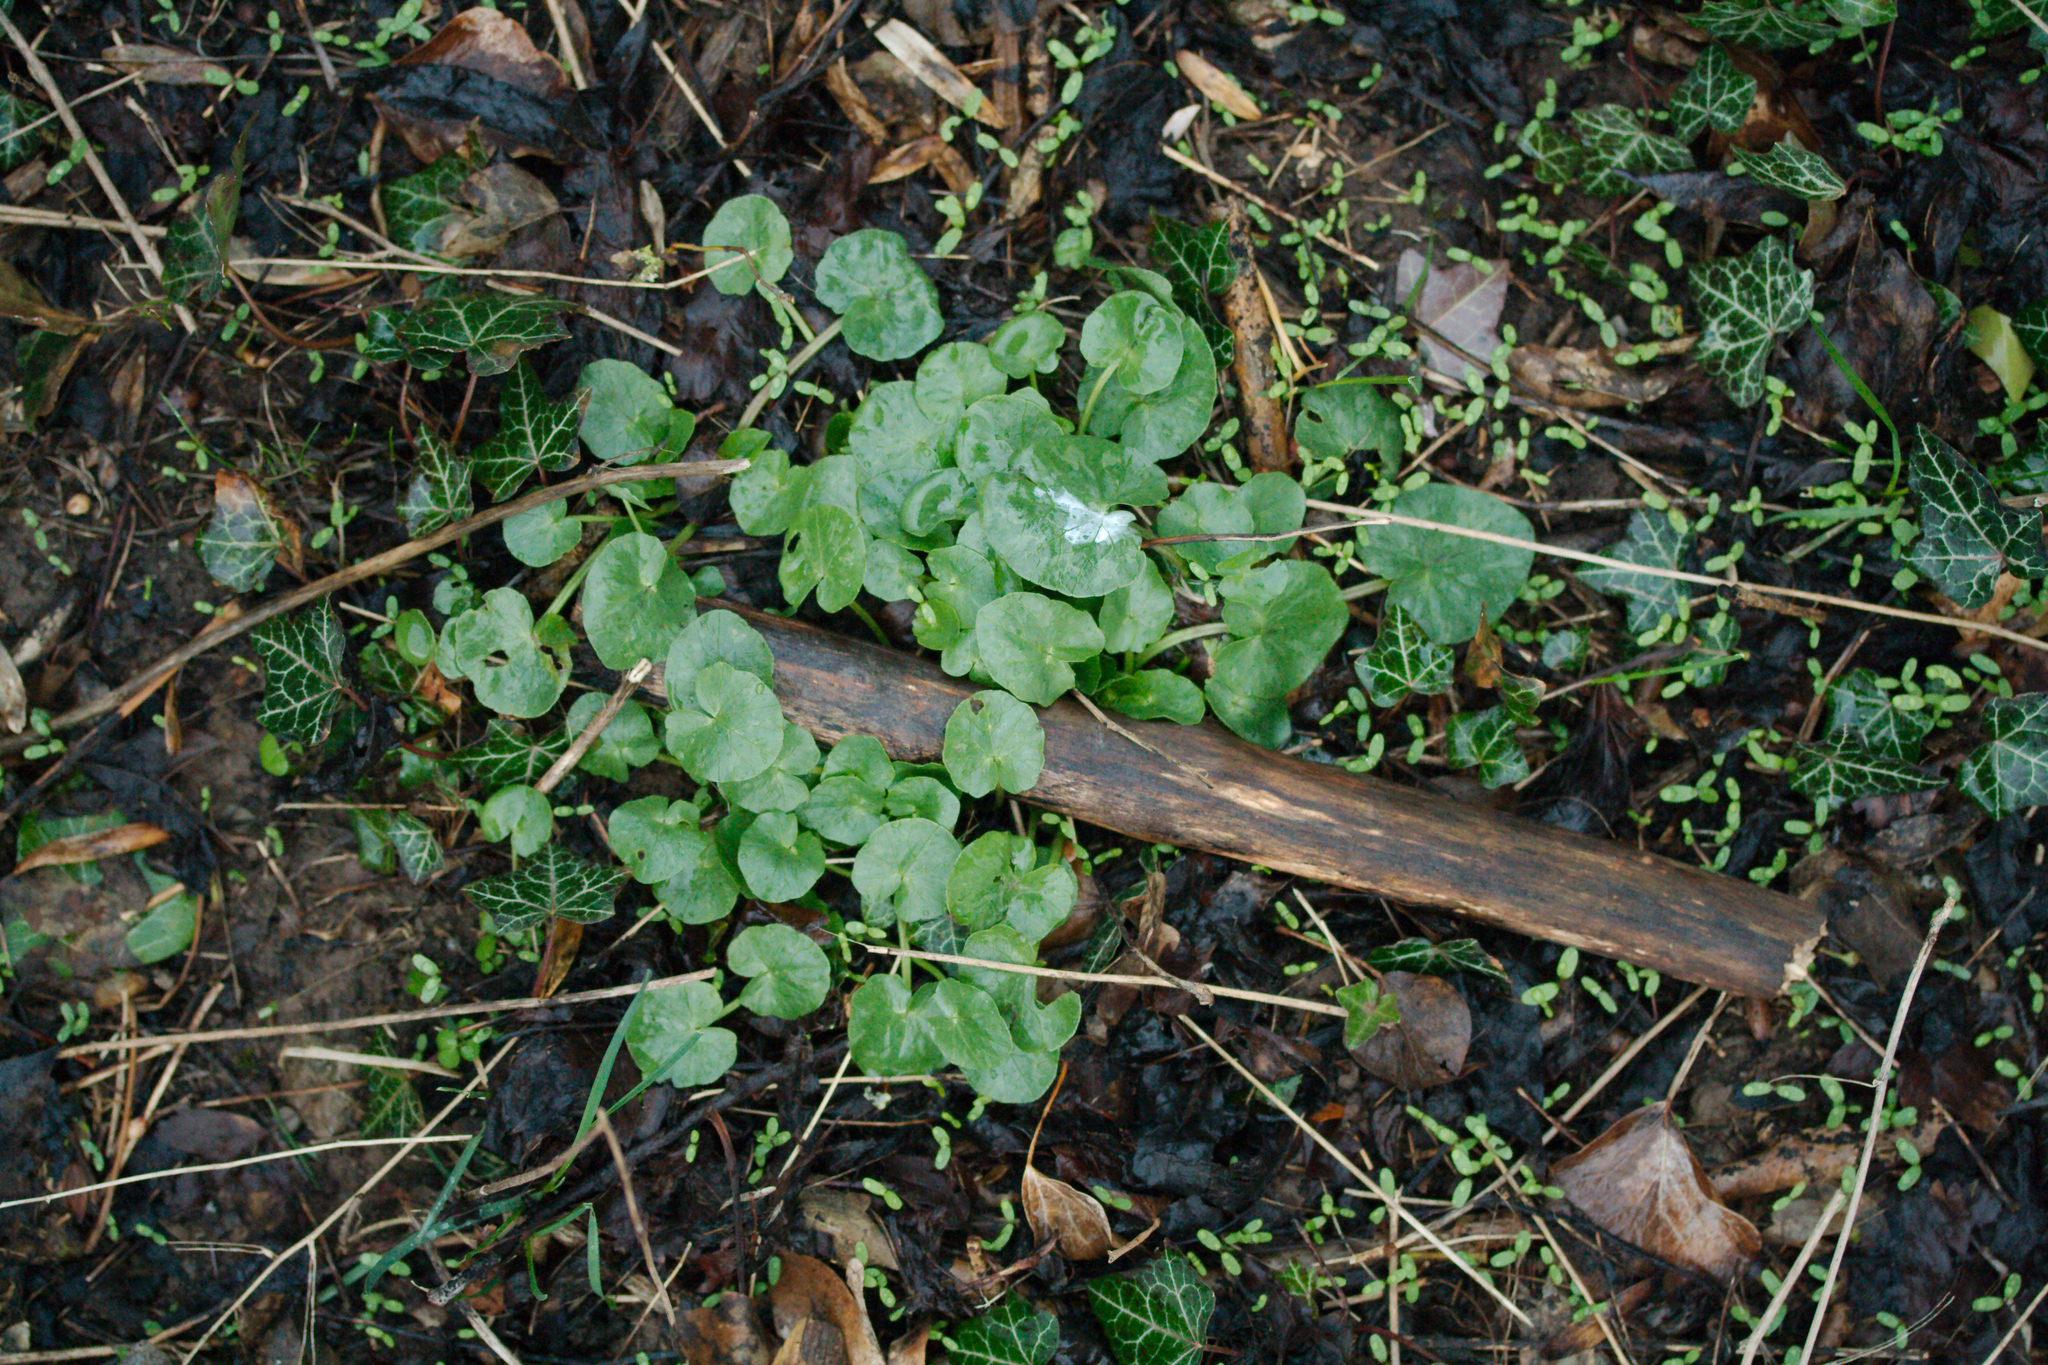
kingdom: Plantae
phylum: Tracheophyta
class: Magnoliopsida
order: Ranunculales
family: Ranunculaceae
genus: Ficaria
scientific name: Ficaria verna
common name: Lesser celandine
